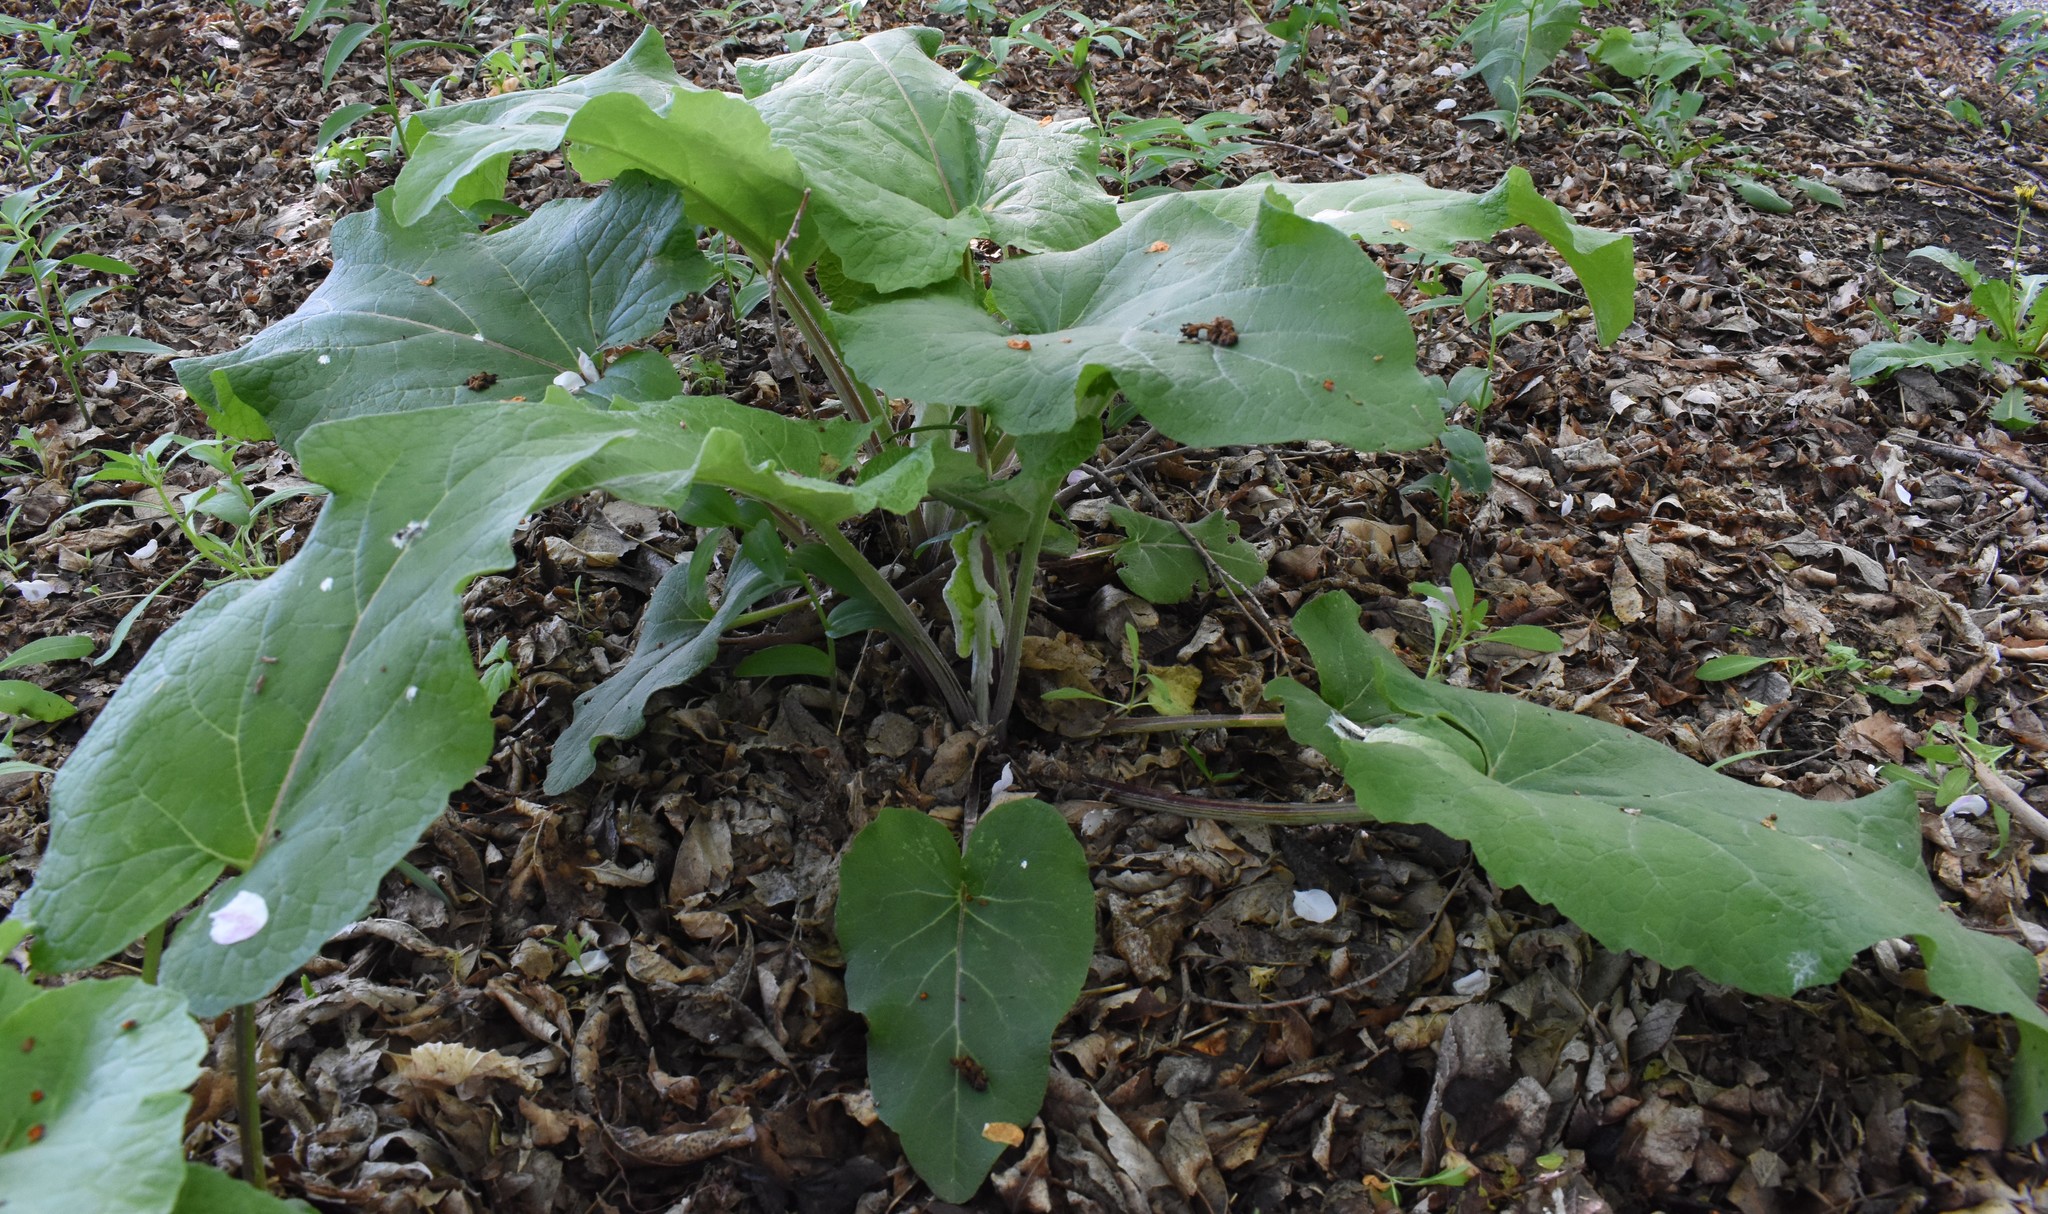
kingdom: Plantae
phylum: Tracheophyta
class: Magnoliopsida
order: Asterales
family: Asteraceae
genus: Arctium
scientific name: Arctium minus
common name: Lesser burdock
